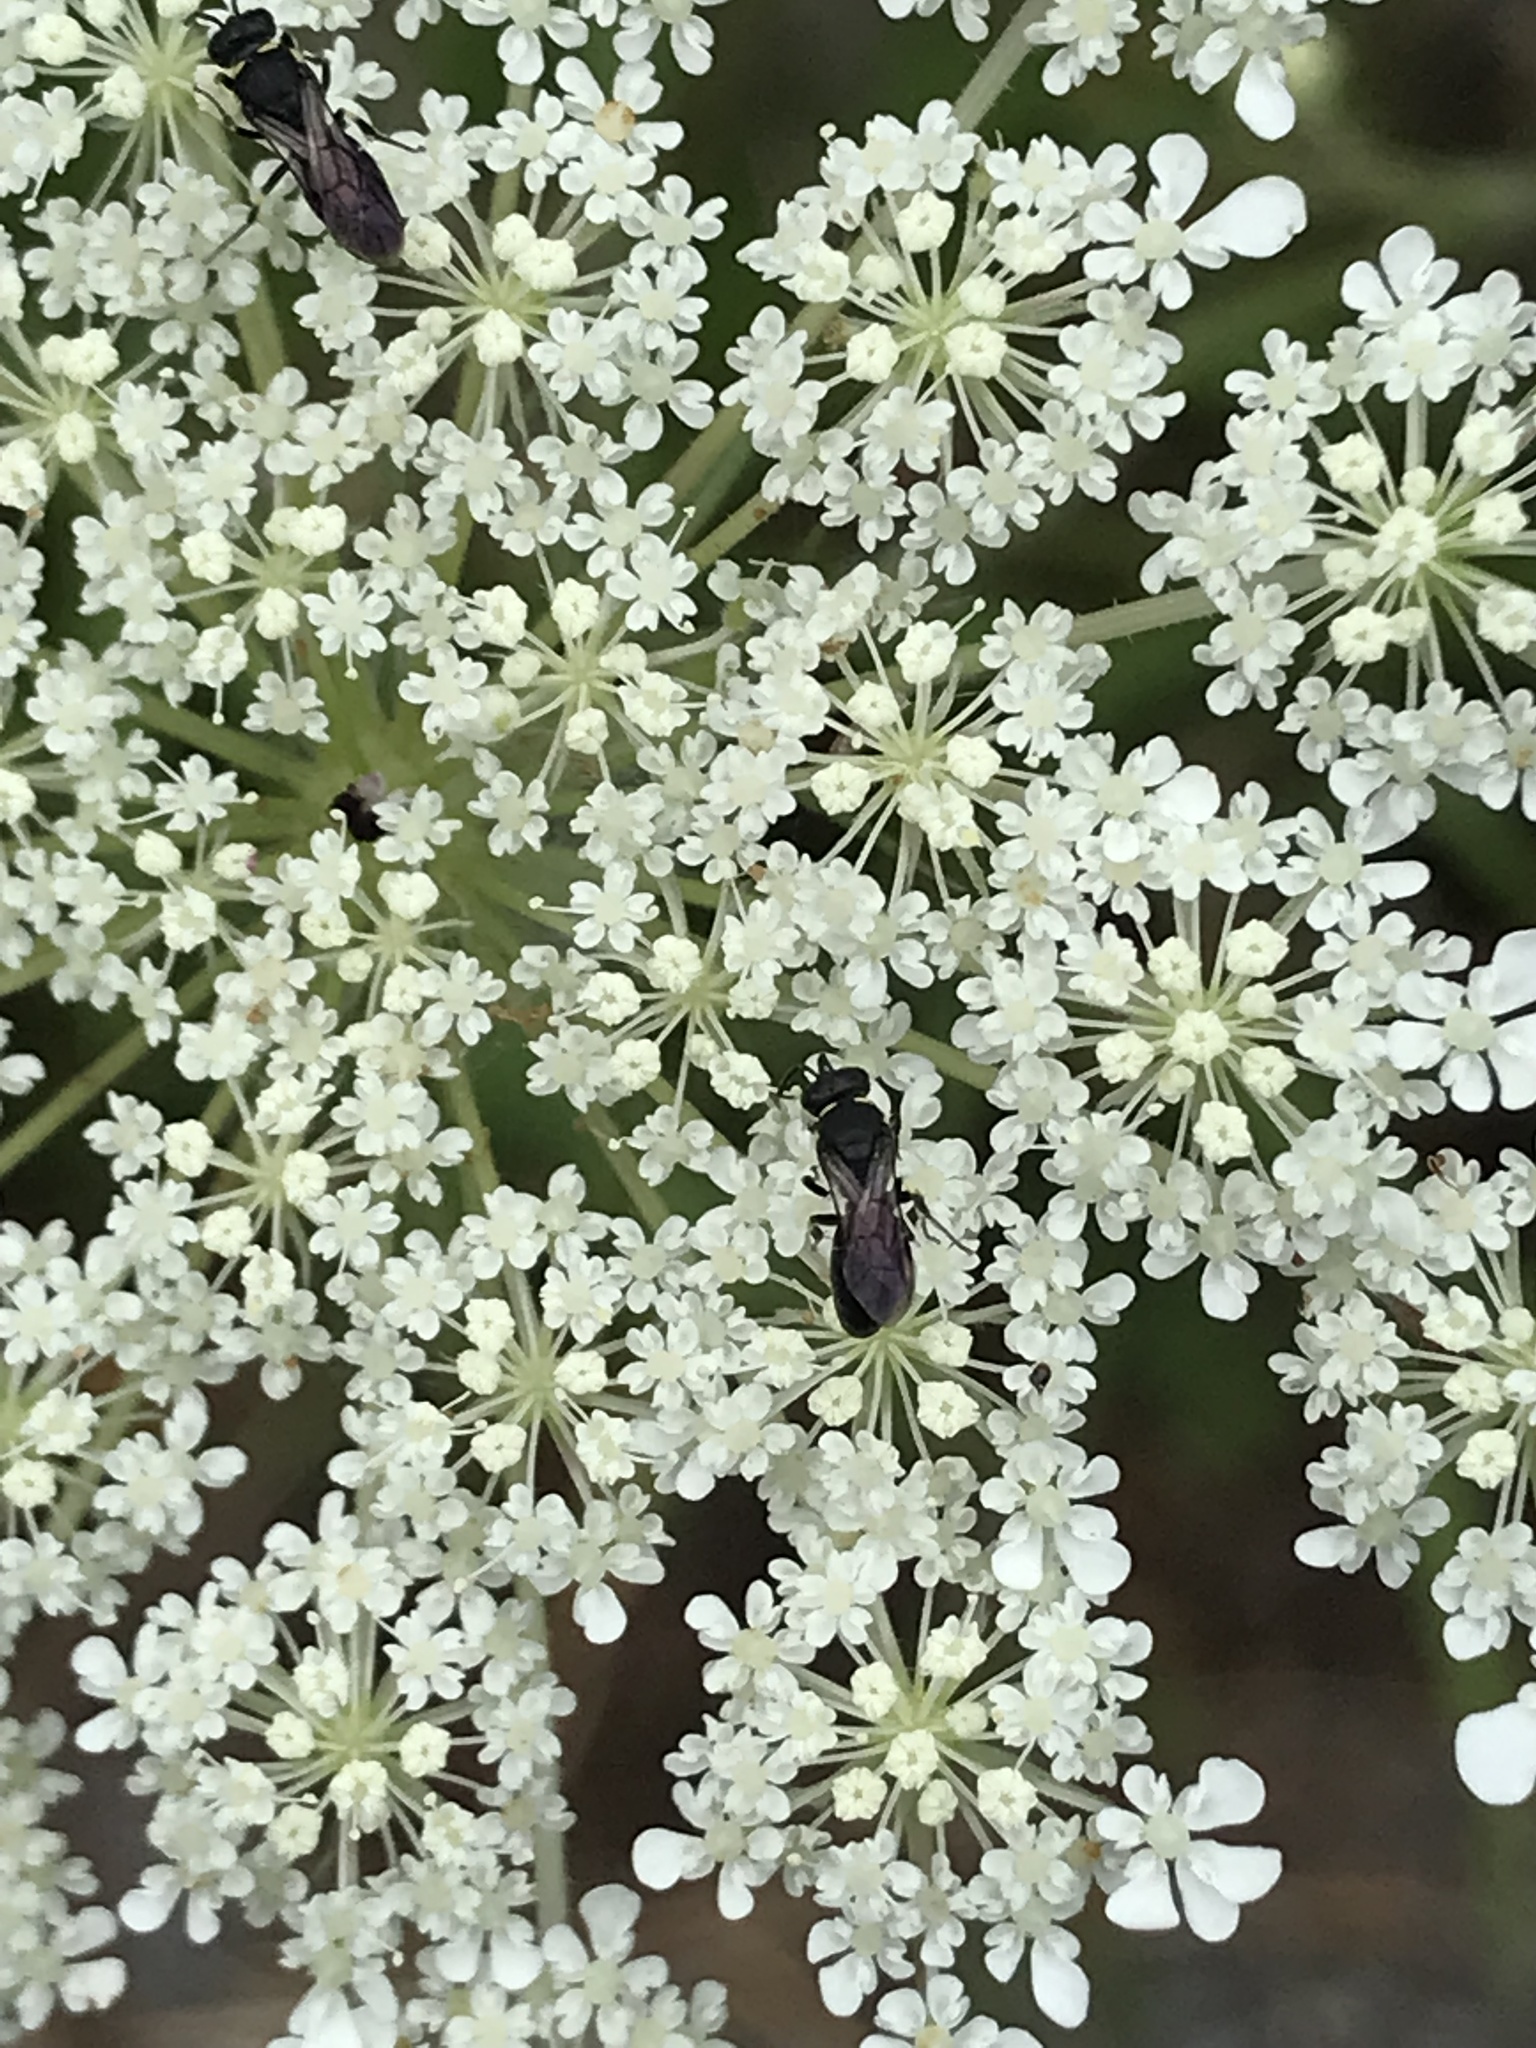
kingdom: Animalia
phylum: Arthropoda
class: Insecta
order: Hymenoptera
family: Colletidae
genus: Hylaeus
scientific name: Hylaeus modestus
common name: Yellow-faced bee
